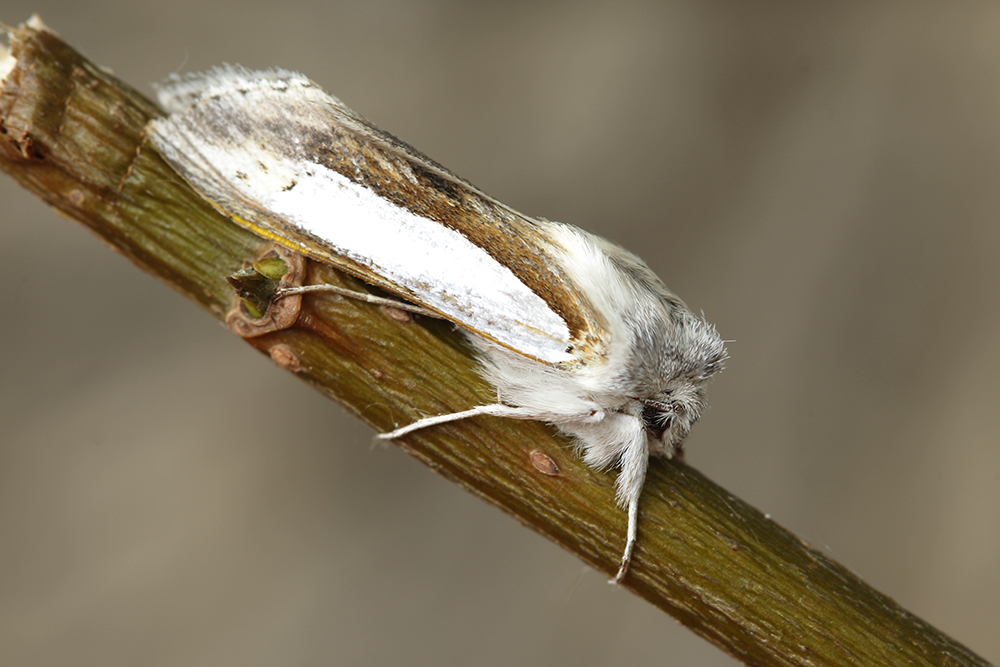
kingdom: Animalia
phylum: Arthropoda
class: Insecta
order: Lepidoptera
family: Noctuidae
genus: Cucullia
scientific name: Cucullia argentina
